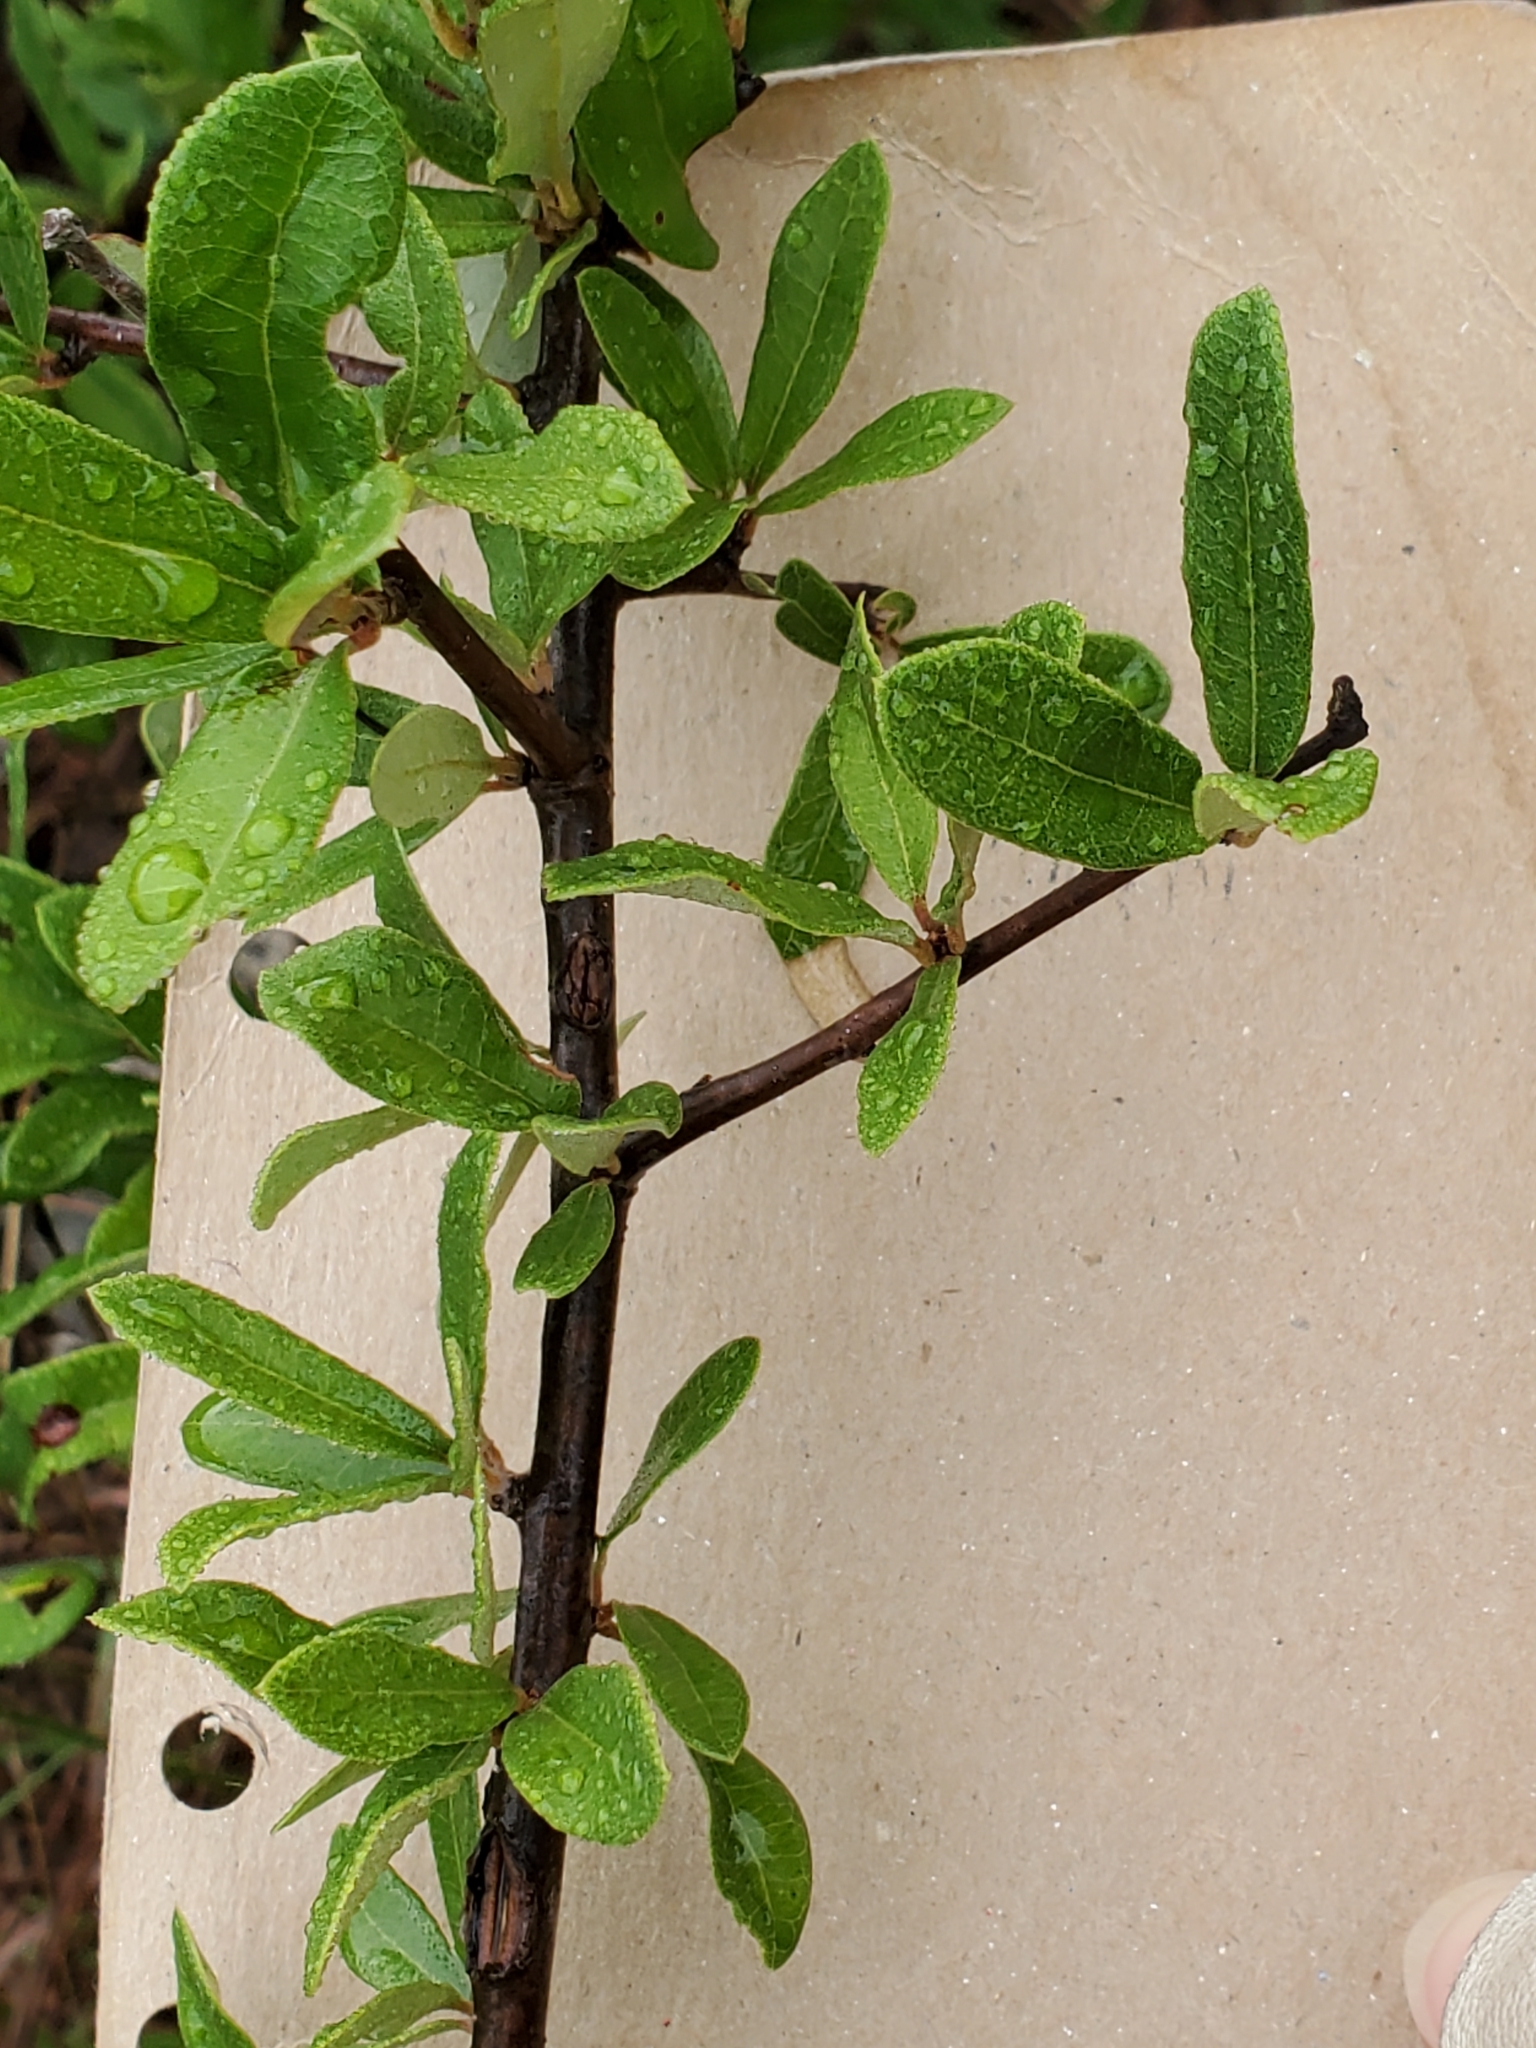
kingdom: Plantae
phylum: Tracheophyta
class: Magnoliopsida
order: Ericales
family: Sapotaceae
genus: Sideroxylon
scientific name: Sideroxylon lanuginosum
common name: Chittamwood
